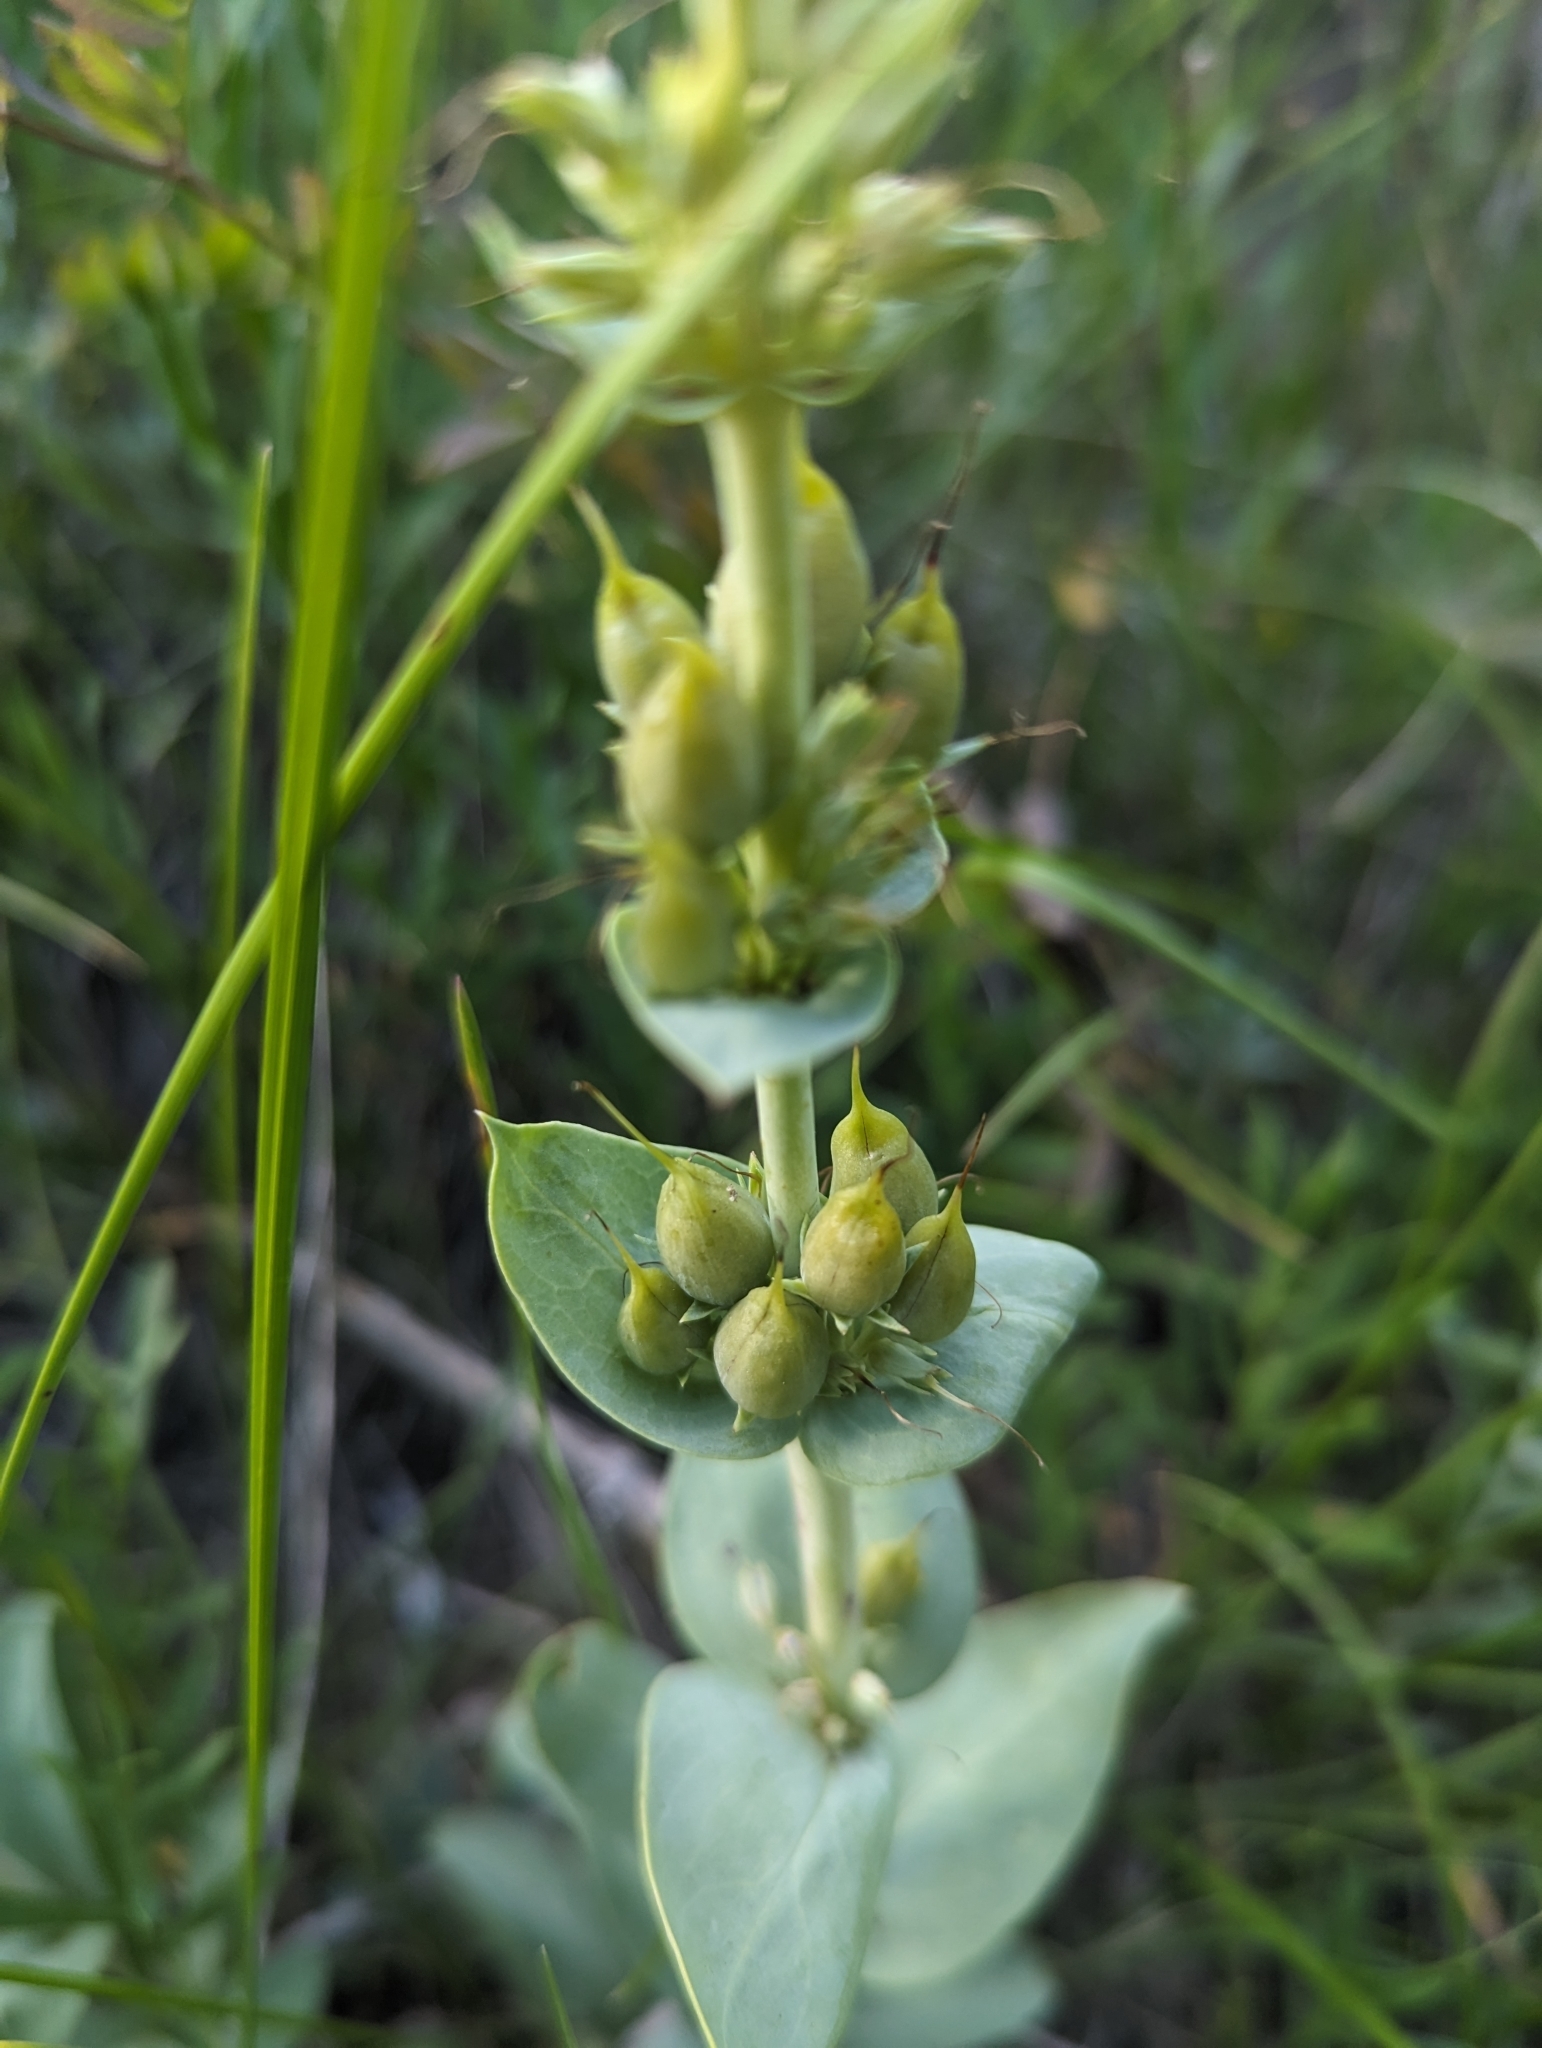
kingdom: Plantae
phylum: Tracheophyta
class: Magnoliopsida
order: Lamiales
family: Plantaginaceae
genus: Penstemon
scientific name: Penstemon nitidus
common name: Shining penstemon
